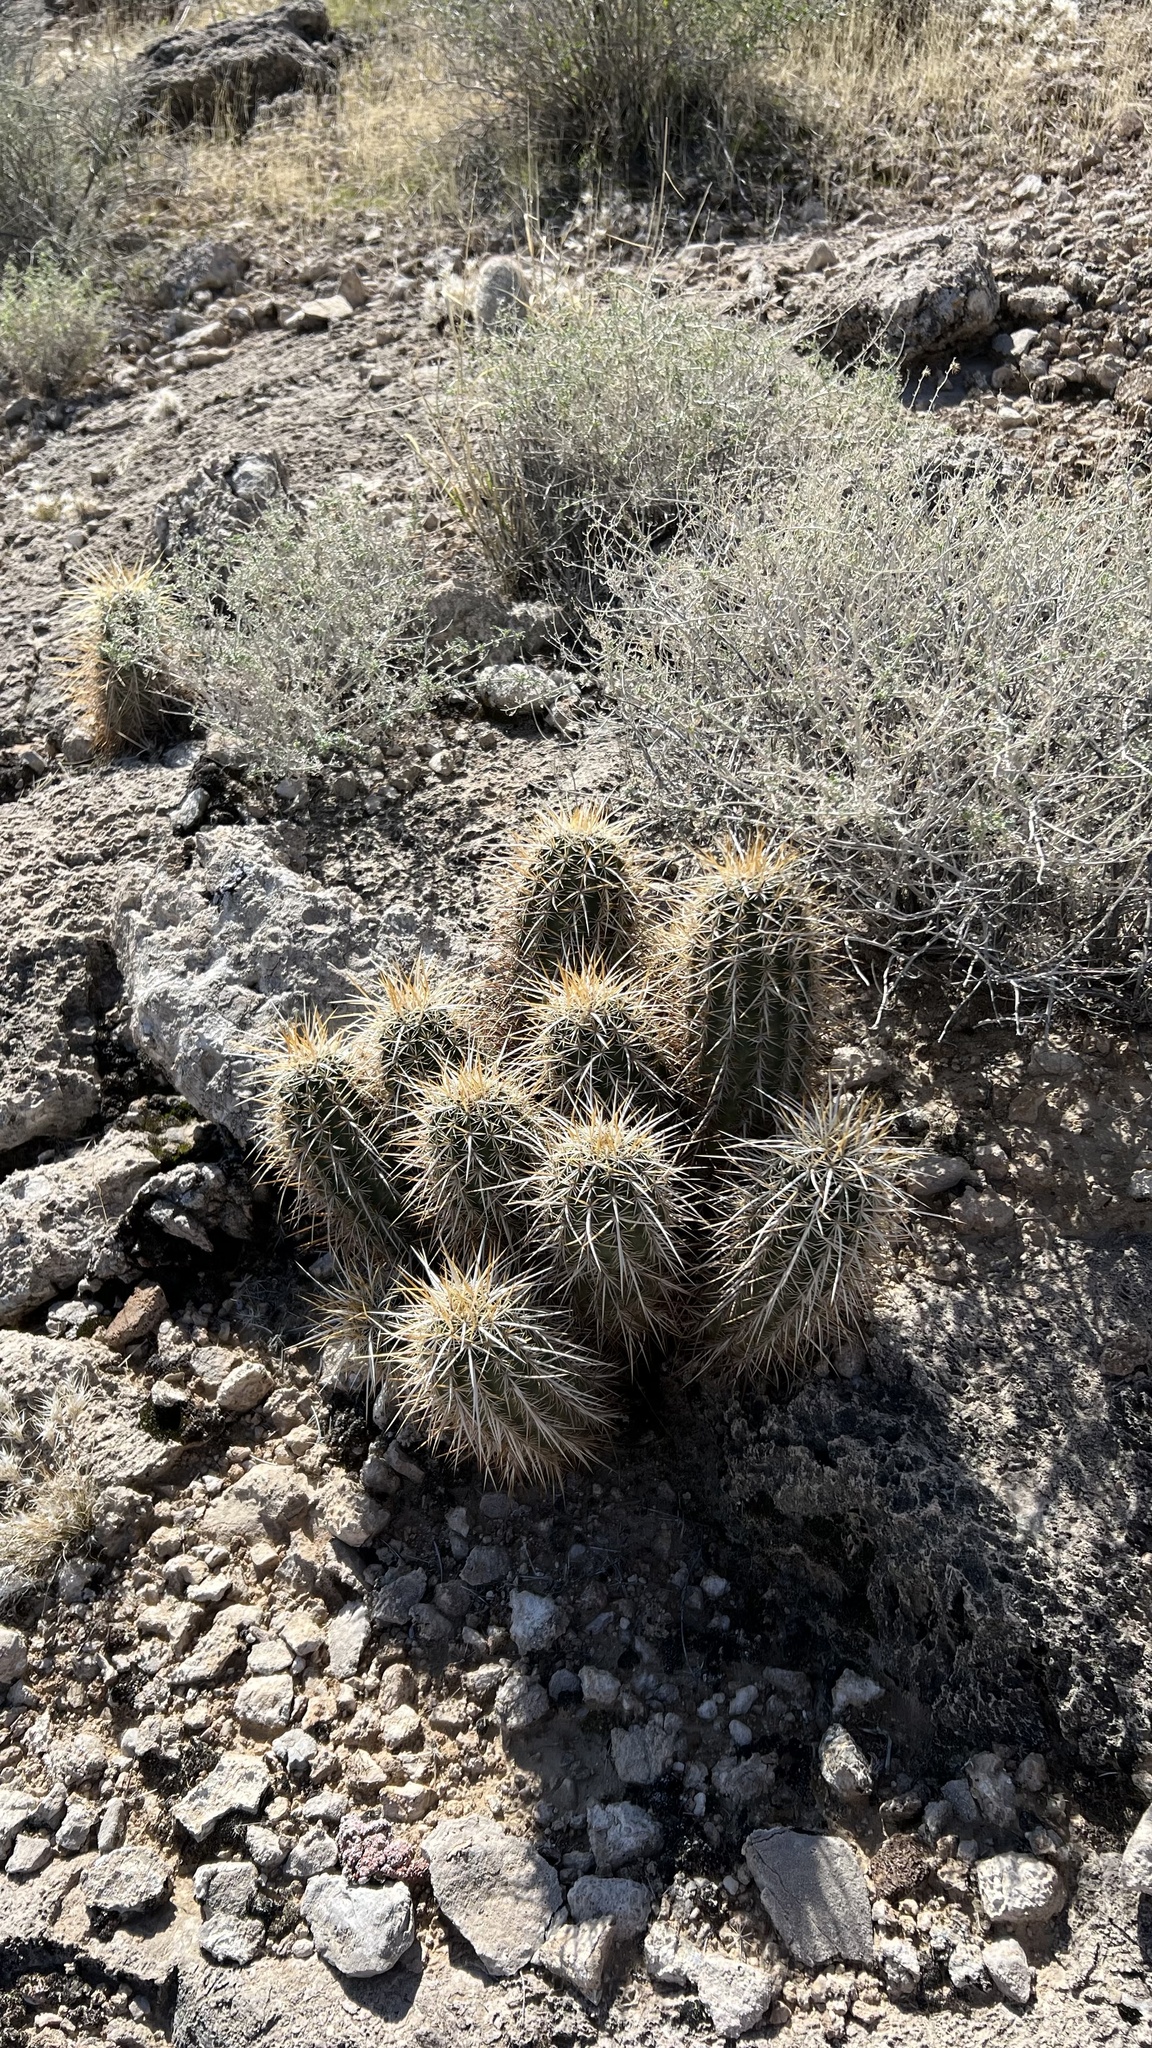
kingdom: Plantae
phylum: Tracheophyta
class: Magnoliopsida
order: Caryophyllales
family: Cactaceae
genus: Echinocereus
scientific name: Echinocereus engelmannii
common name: Engelmann's hedgehog cactus
